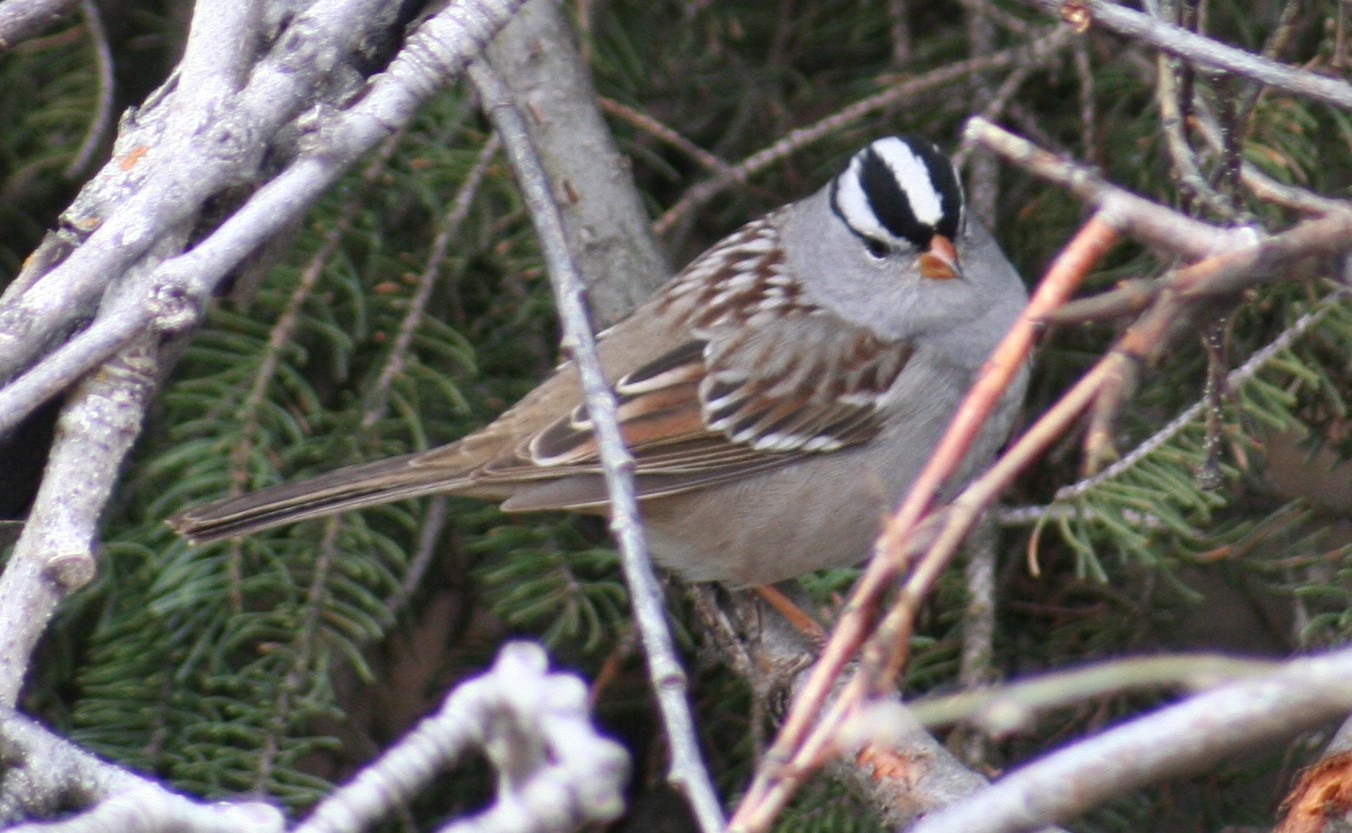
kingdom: Animalia
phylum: Chordata
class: Aves
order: Passeriformes
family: Passerellidae
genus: Zonotrichia
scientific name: Zonotrichia leucophrys
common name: White-crowned sparrow
